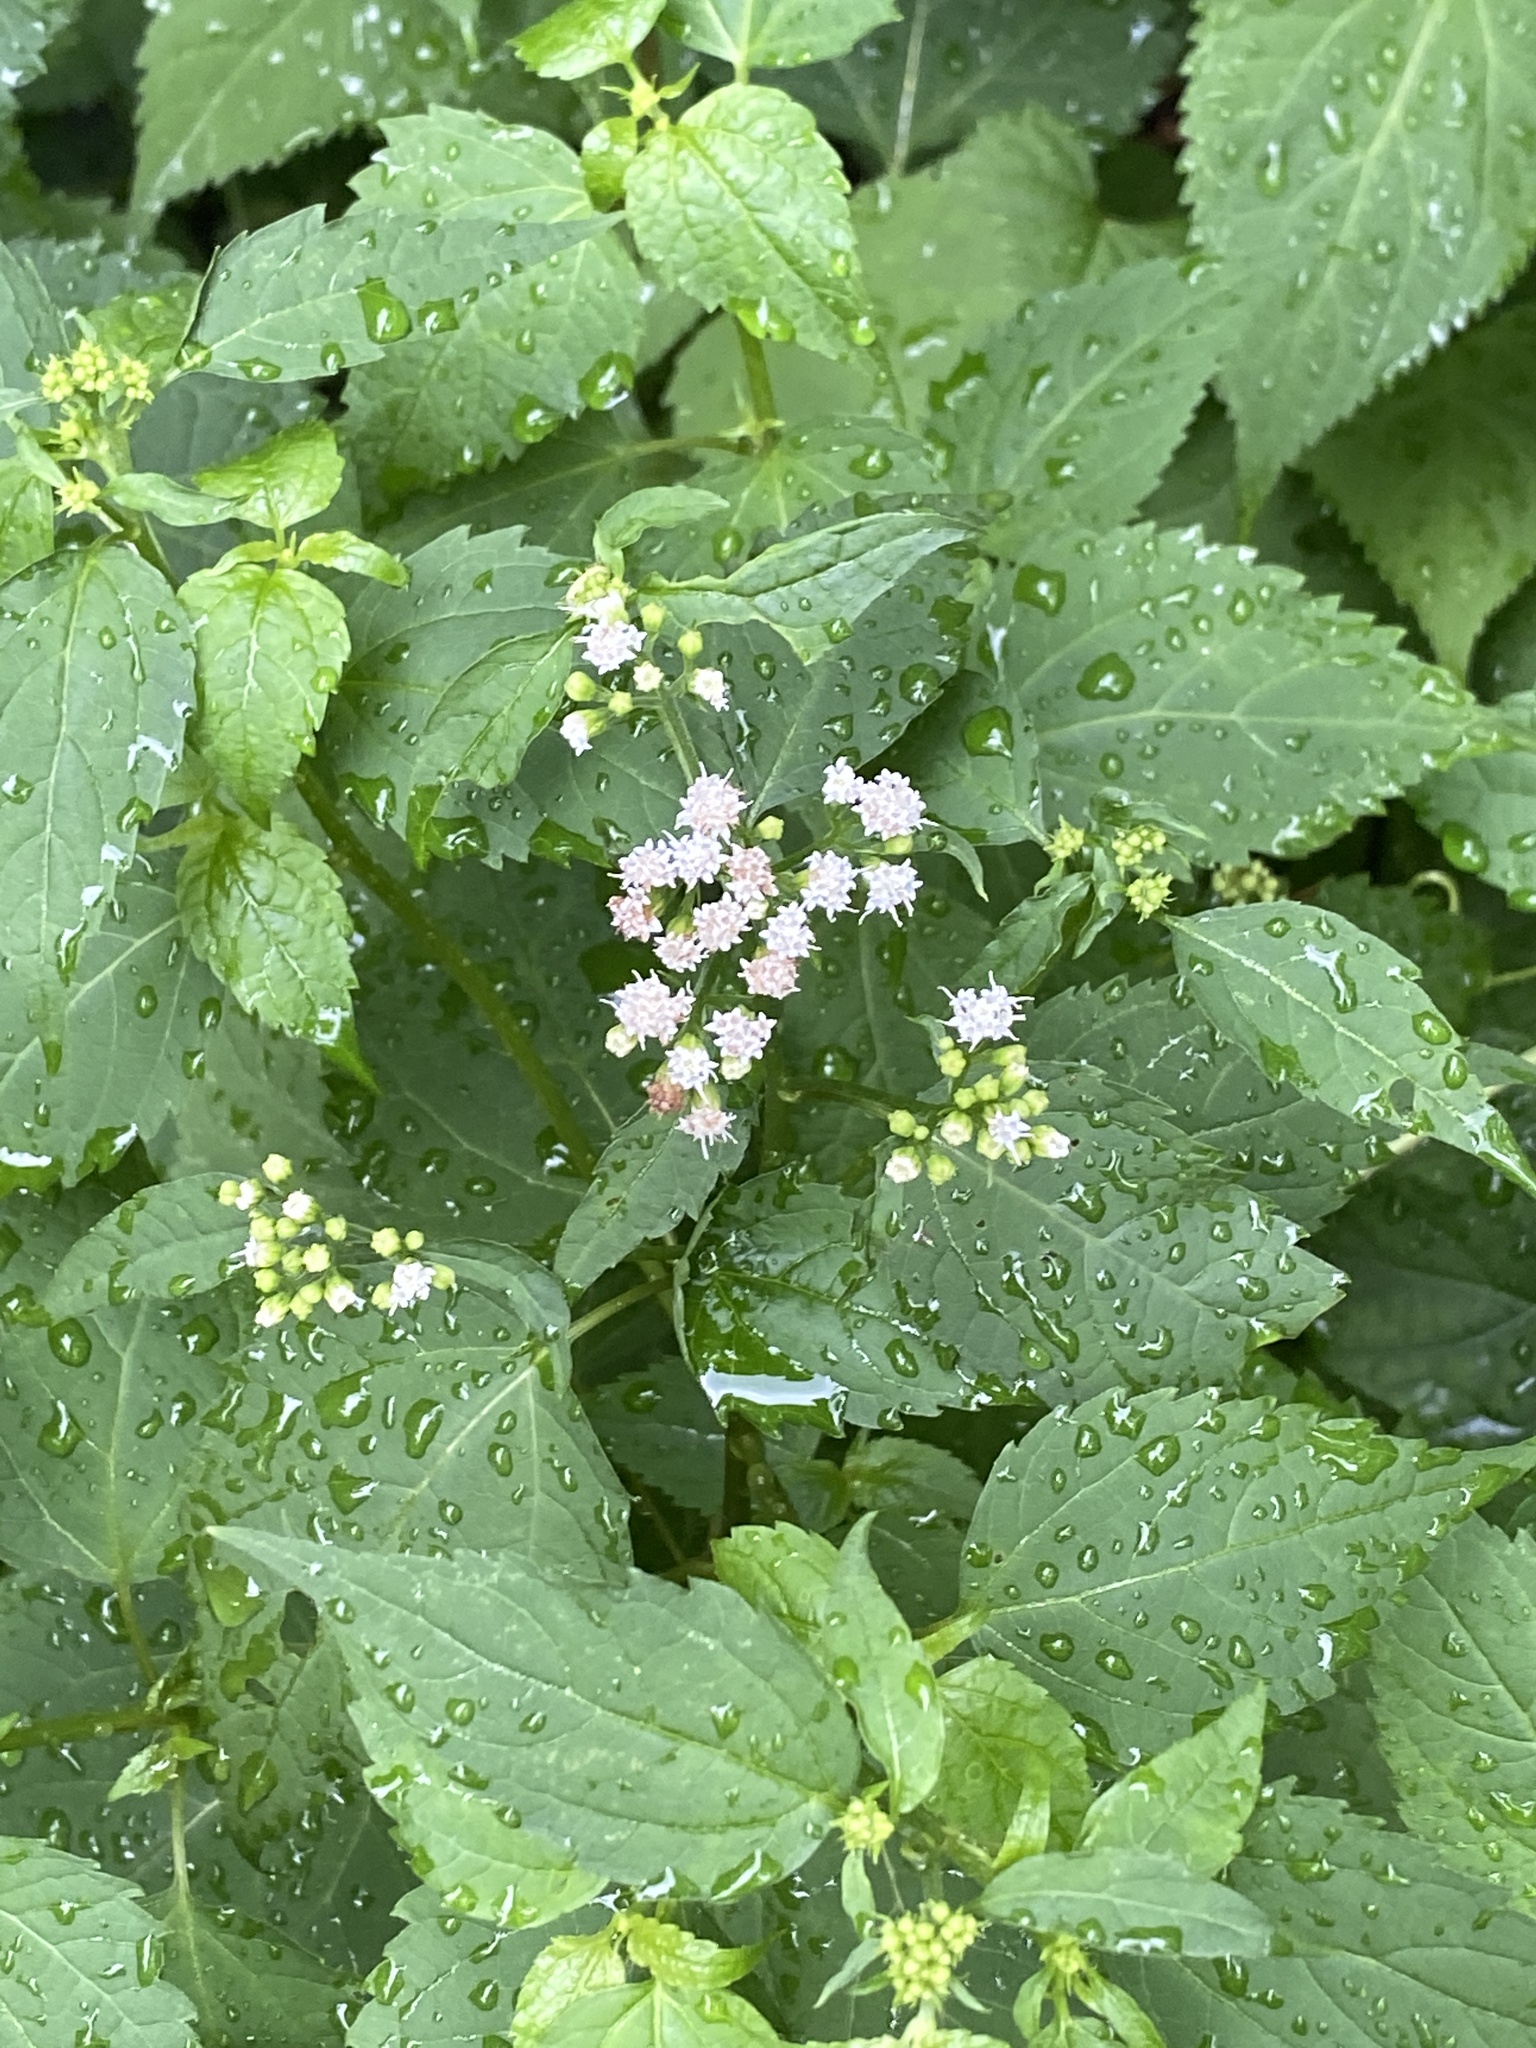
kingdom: Plantae
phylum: Tracheophyta
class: Magnoliopsida
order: Asterales
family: Asteraceae
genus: Ageratina
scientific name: Ageratina altissima
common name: White snakeroot
